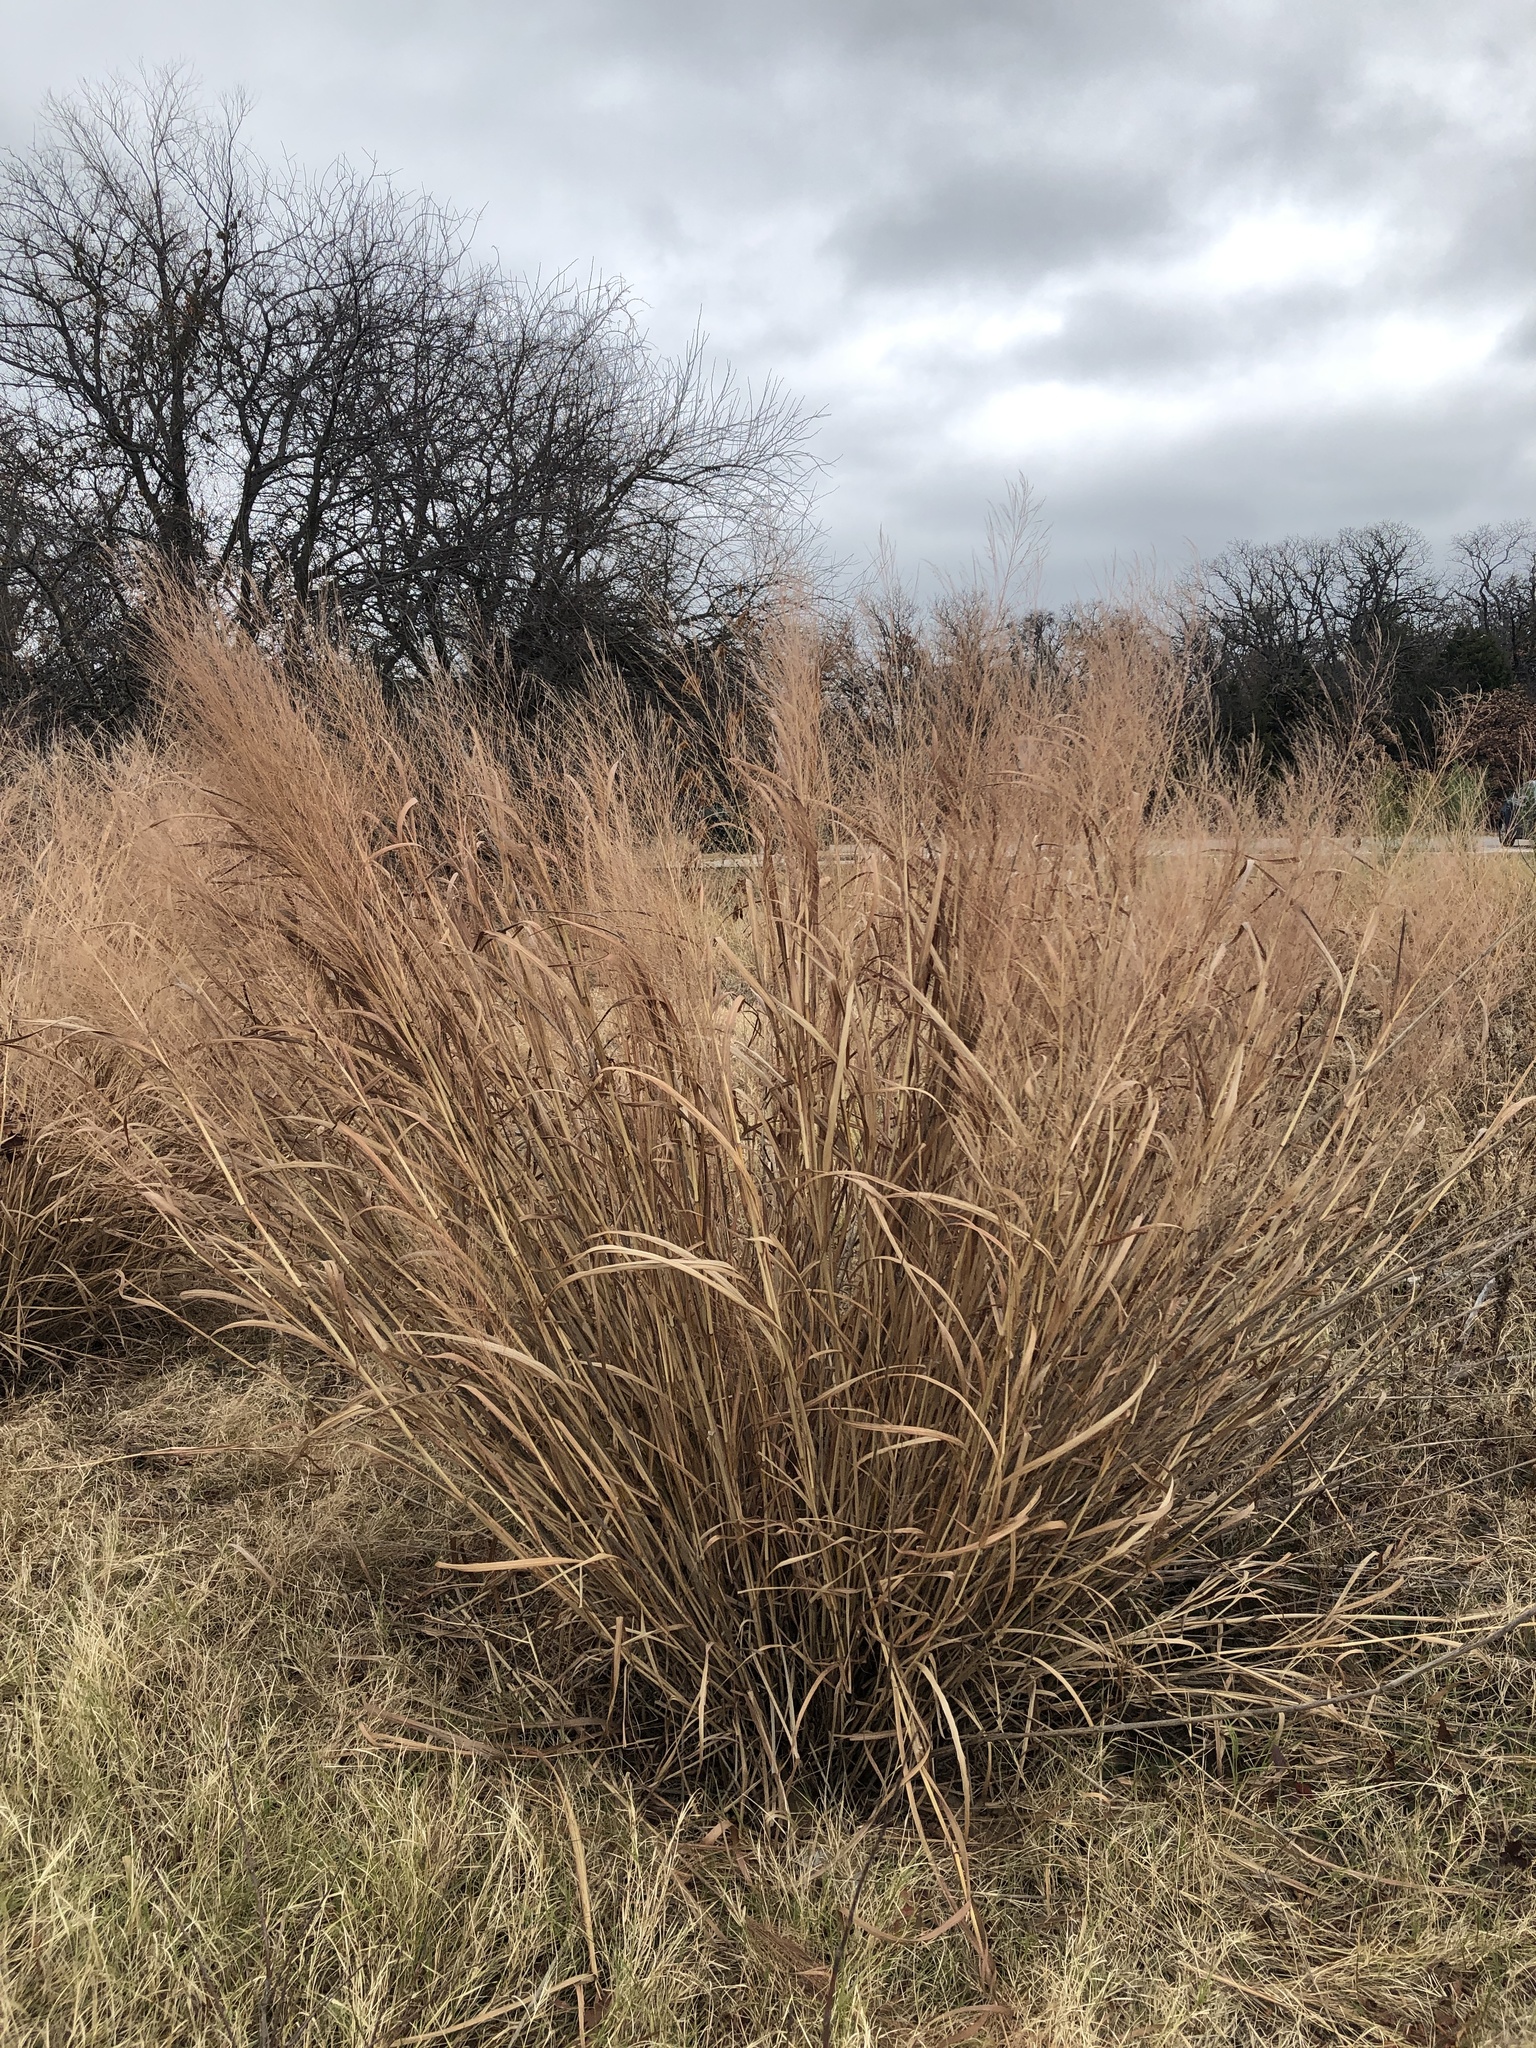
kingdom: Plantae
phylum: Tracheophyta
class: Liliopsida
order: Poales
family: Poaceae
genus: Panicum
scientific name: Panicum virgatum
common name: Switchgrass
